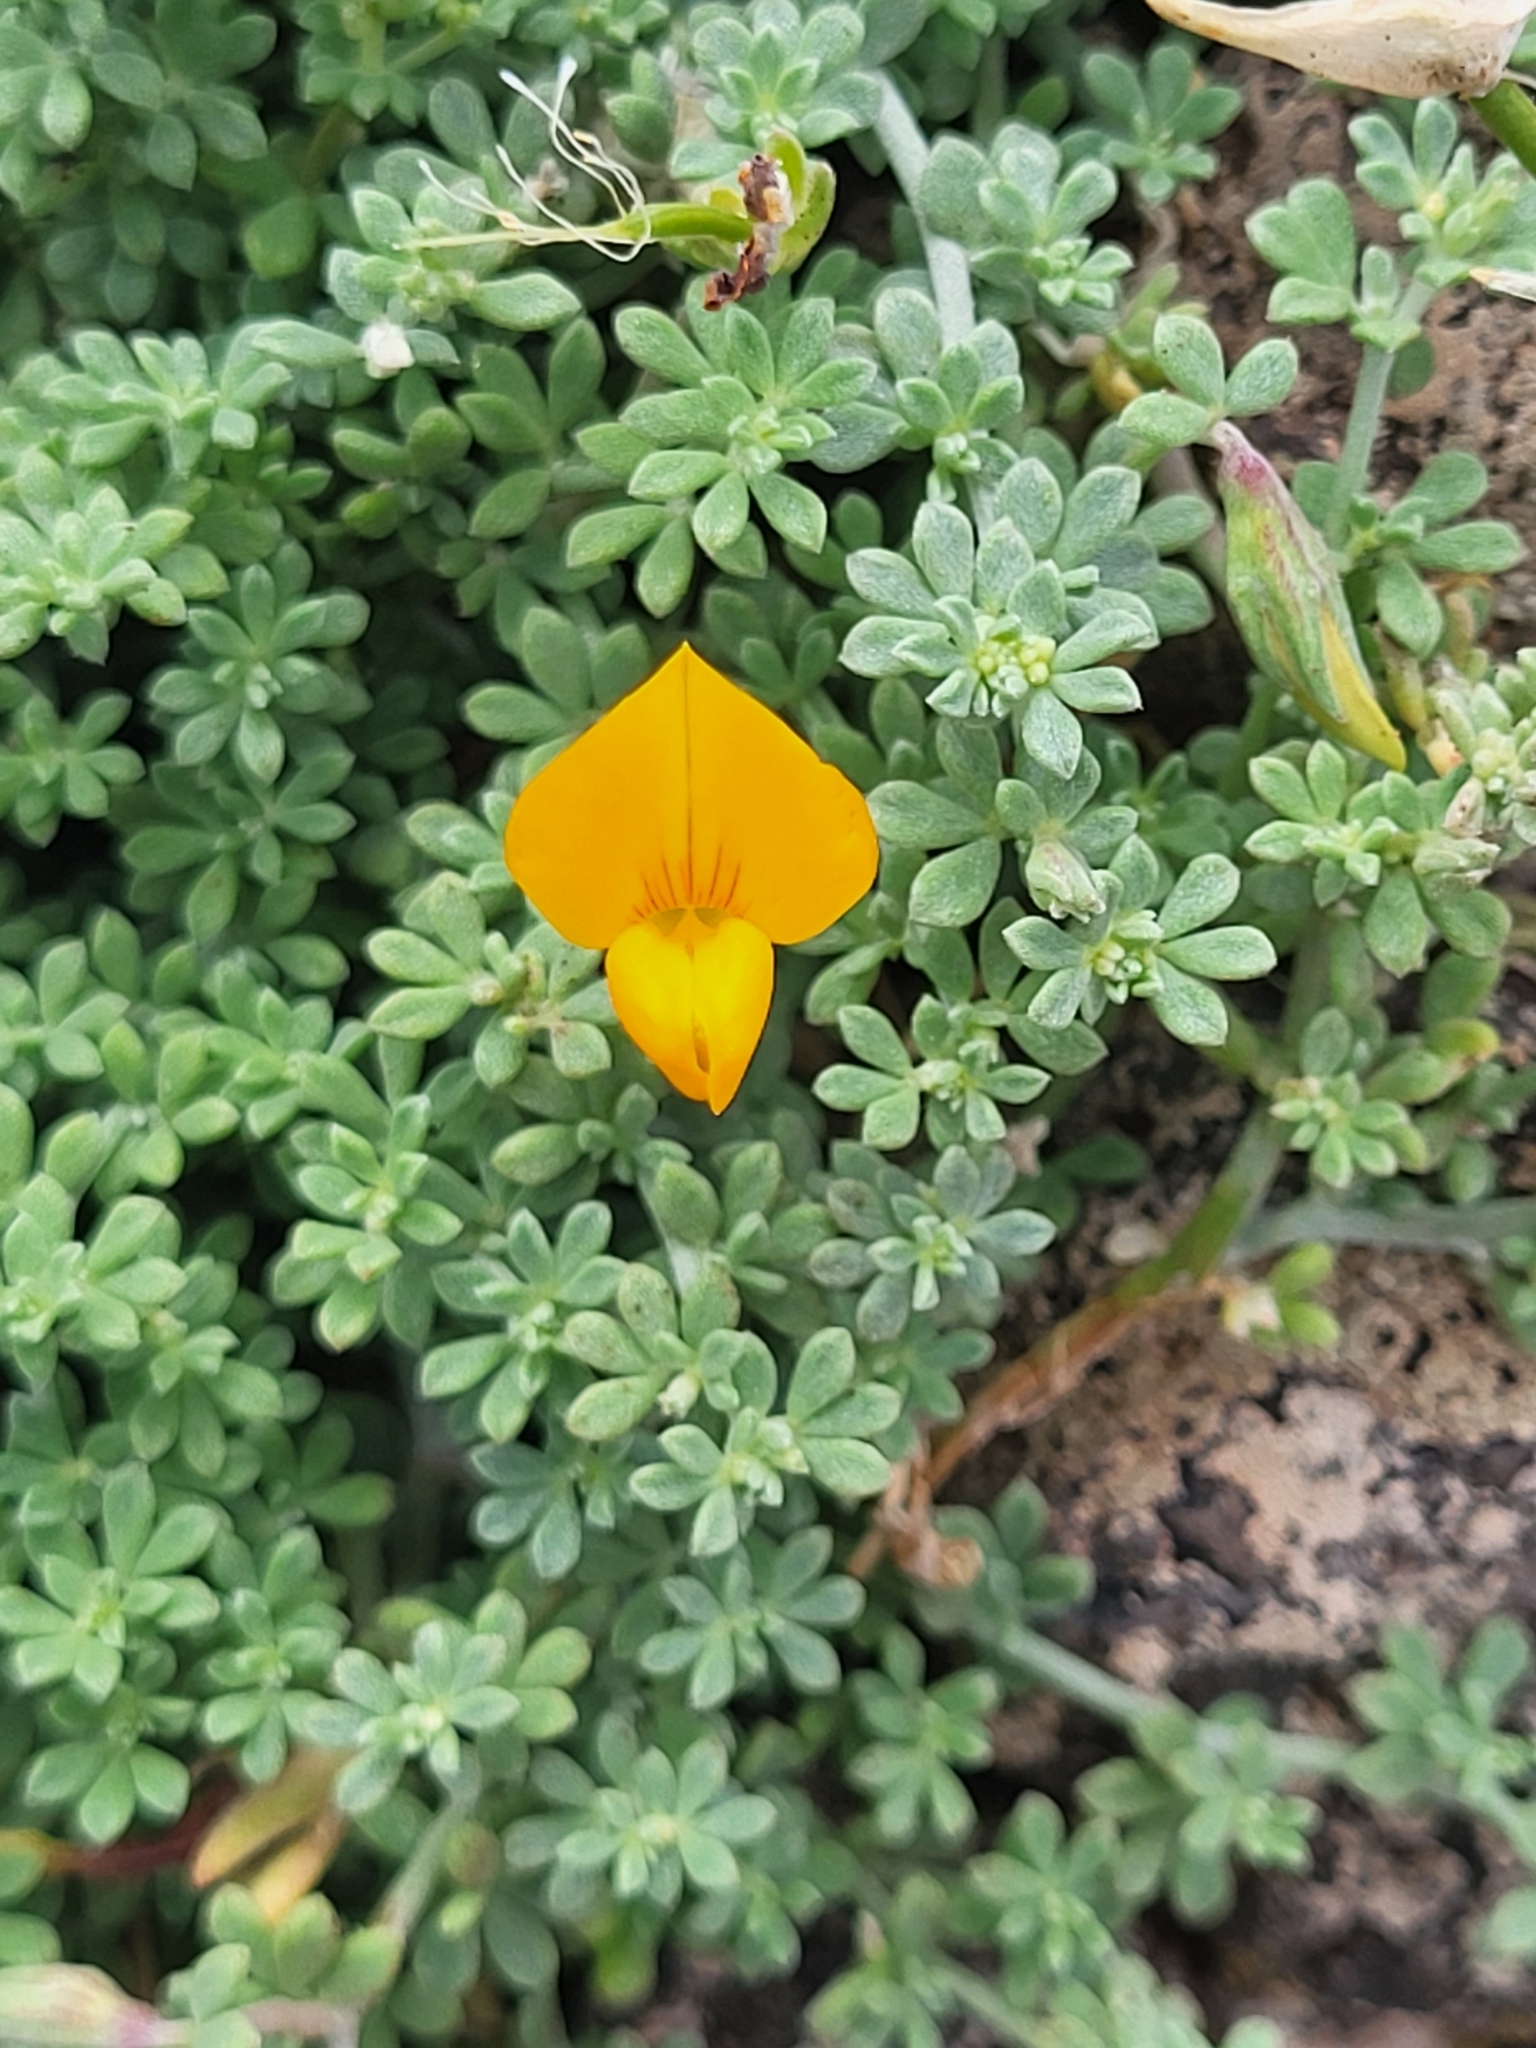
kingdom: Plantae
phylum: Tracheophyta
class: Magnoliopsida
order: Fabales
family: Fabaceae
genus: Lotus
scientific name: Lotus glaucus
